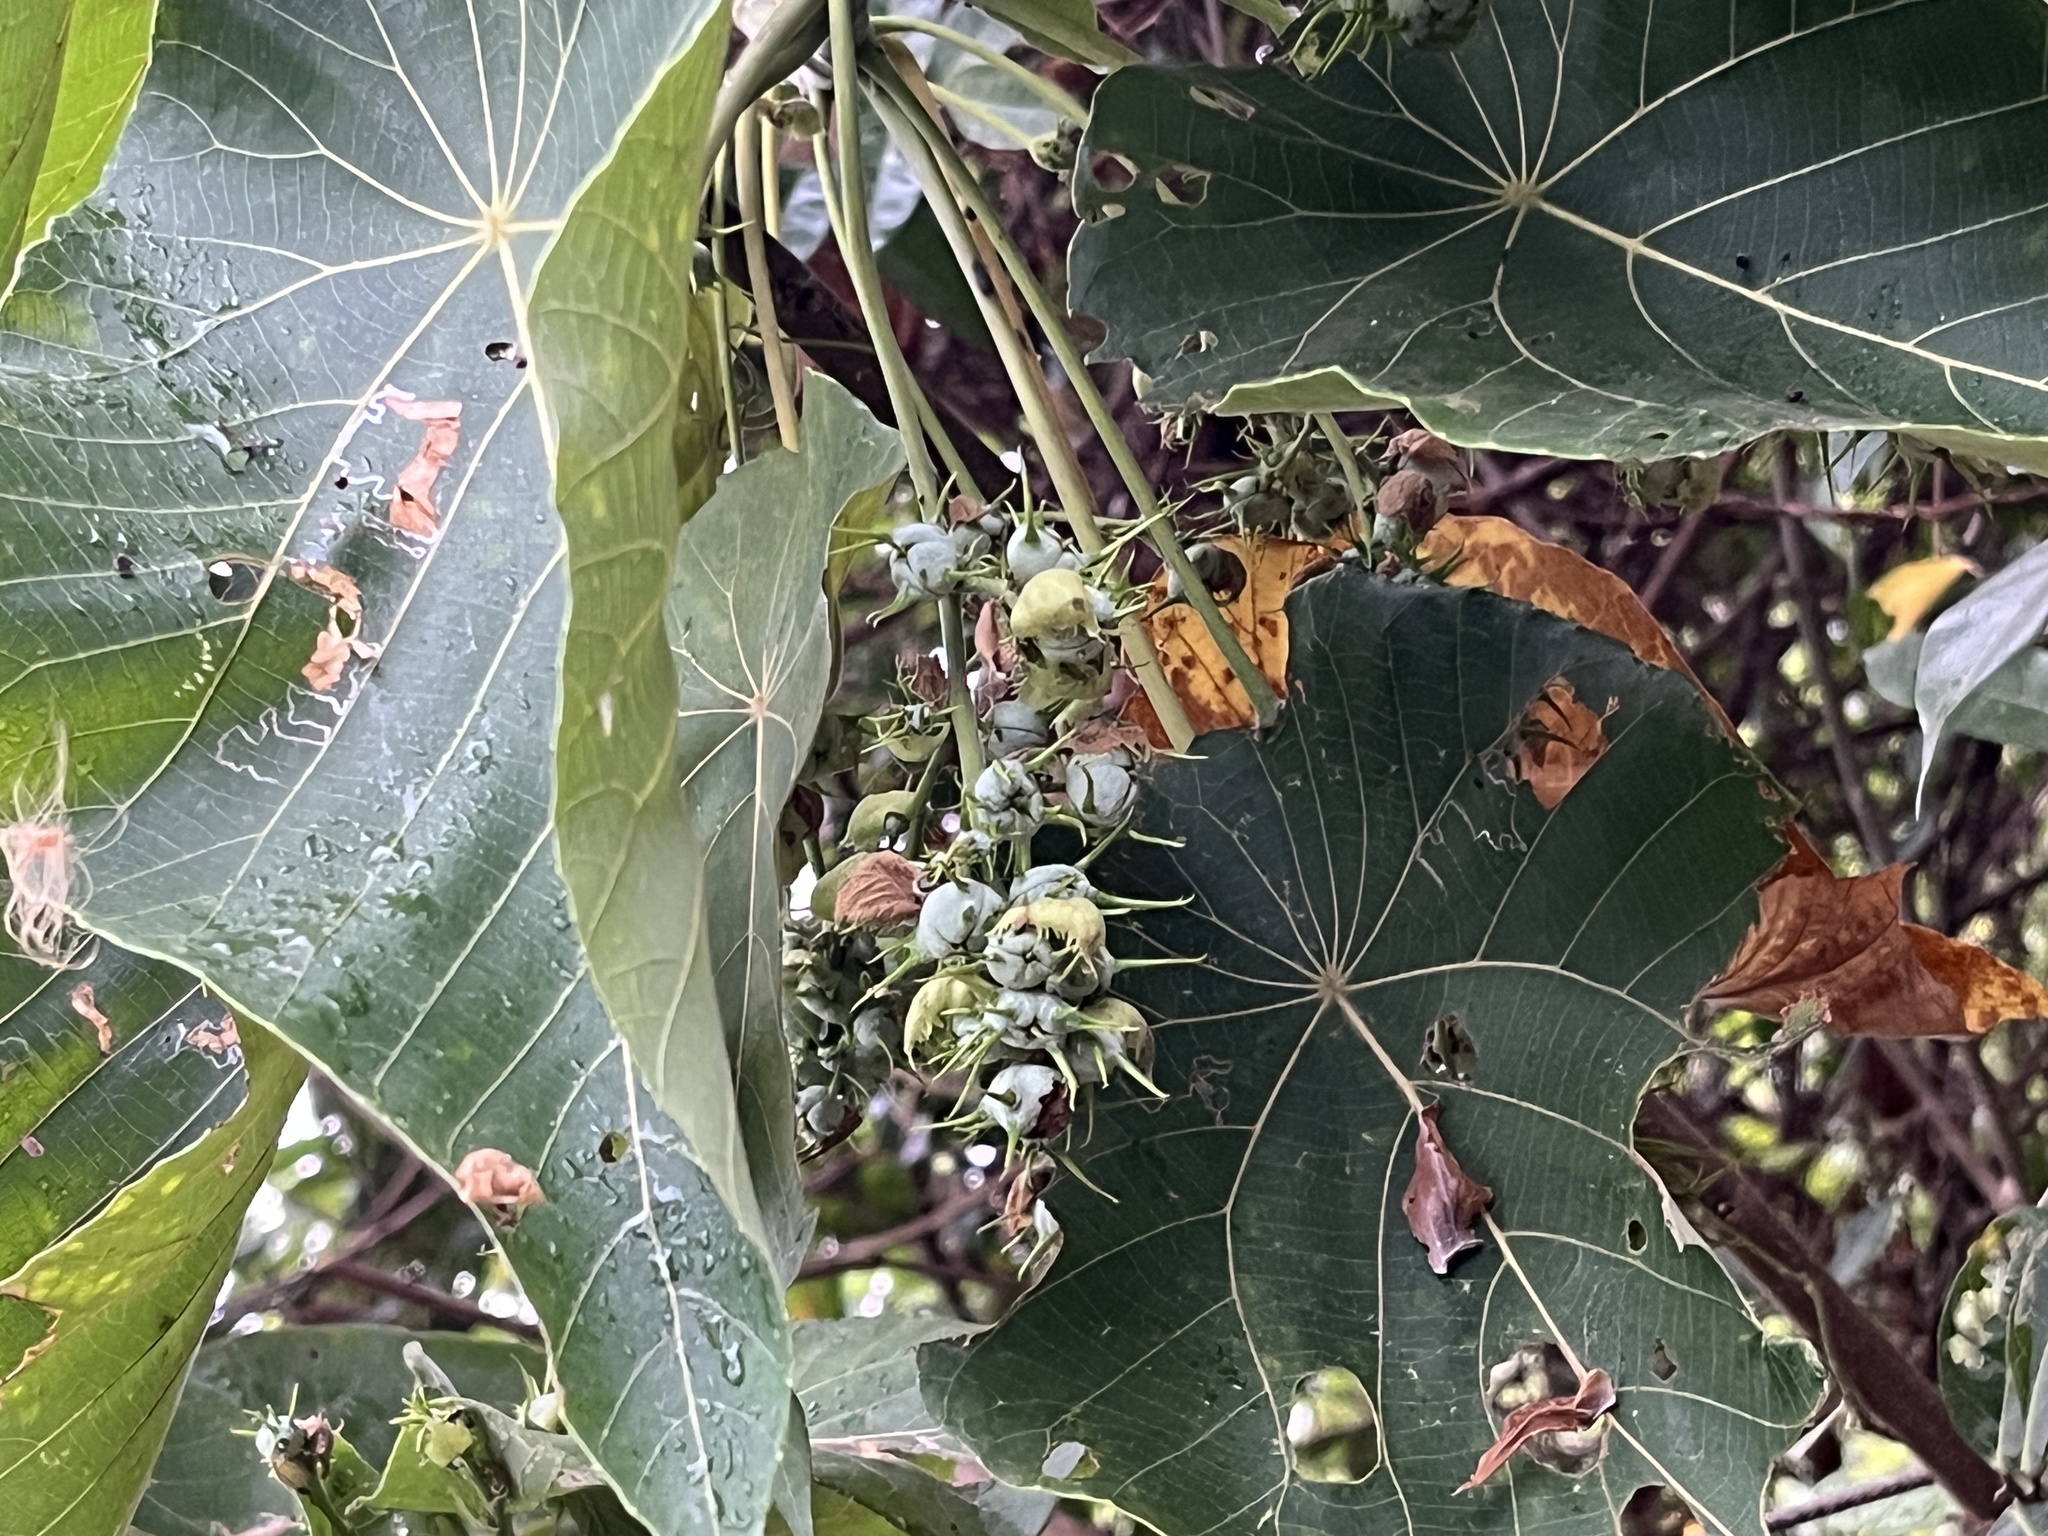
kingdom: Plantae
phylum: Tracheophyta
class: Magnoliopsida
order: Malpighiales
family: Euphorbiaceae
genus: Macaranga
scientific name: Macaranga tanarius
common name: Parasol leaf tree
